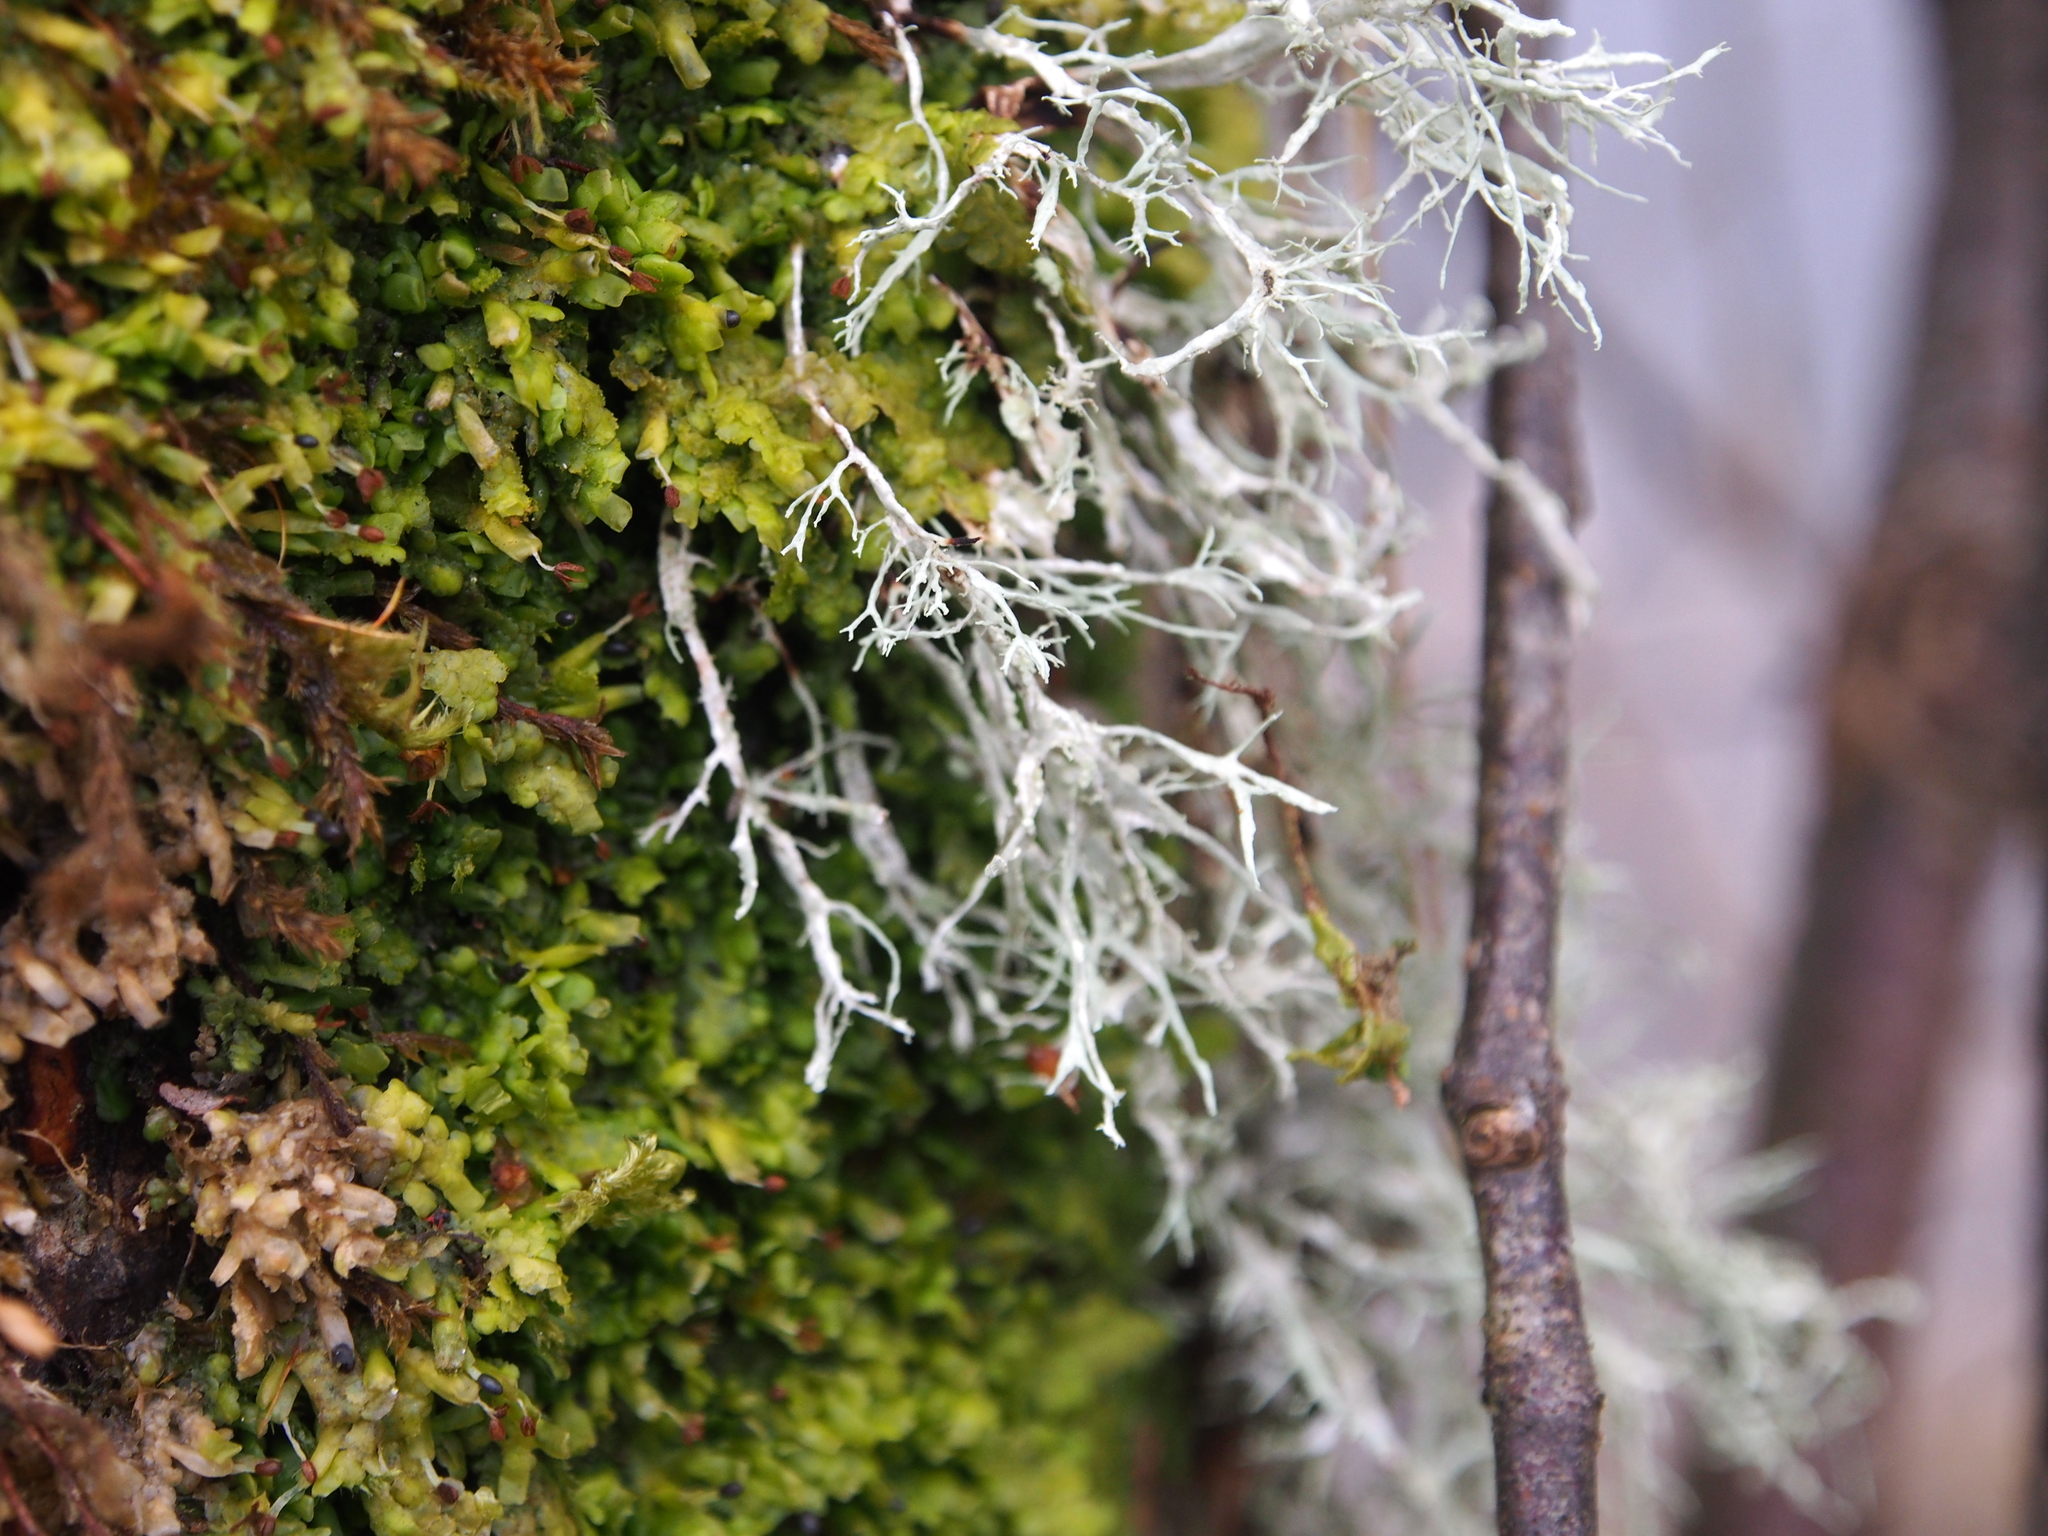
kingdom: Fungi
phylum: Ascomycota
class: Lecanoromycetes
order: Lecanorales
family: Ramalinaceae
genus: Ramalina
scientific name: Ramalina farinacea
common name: Farinose cartilage lichen
